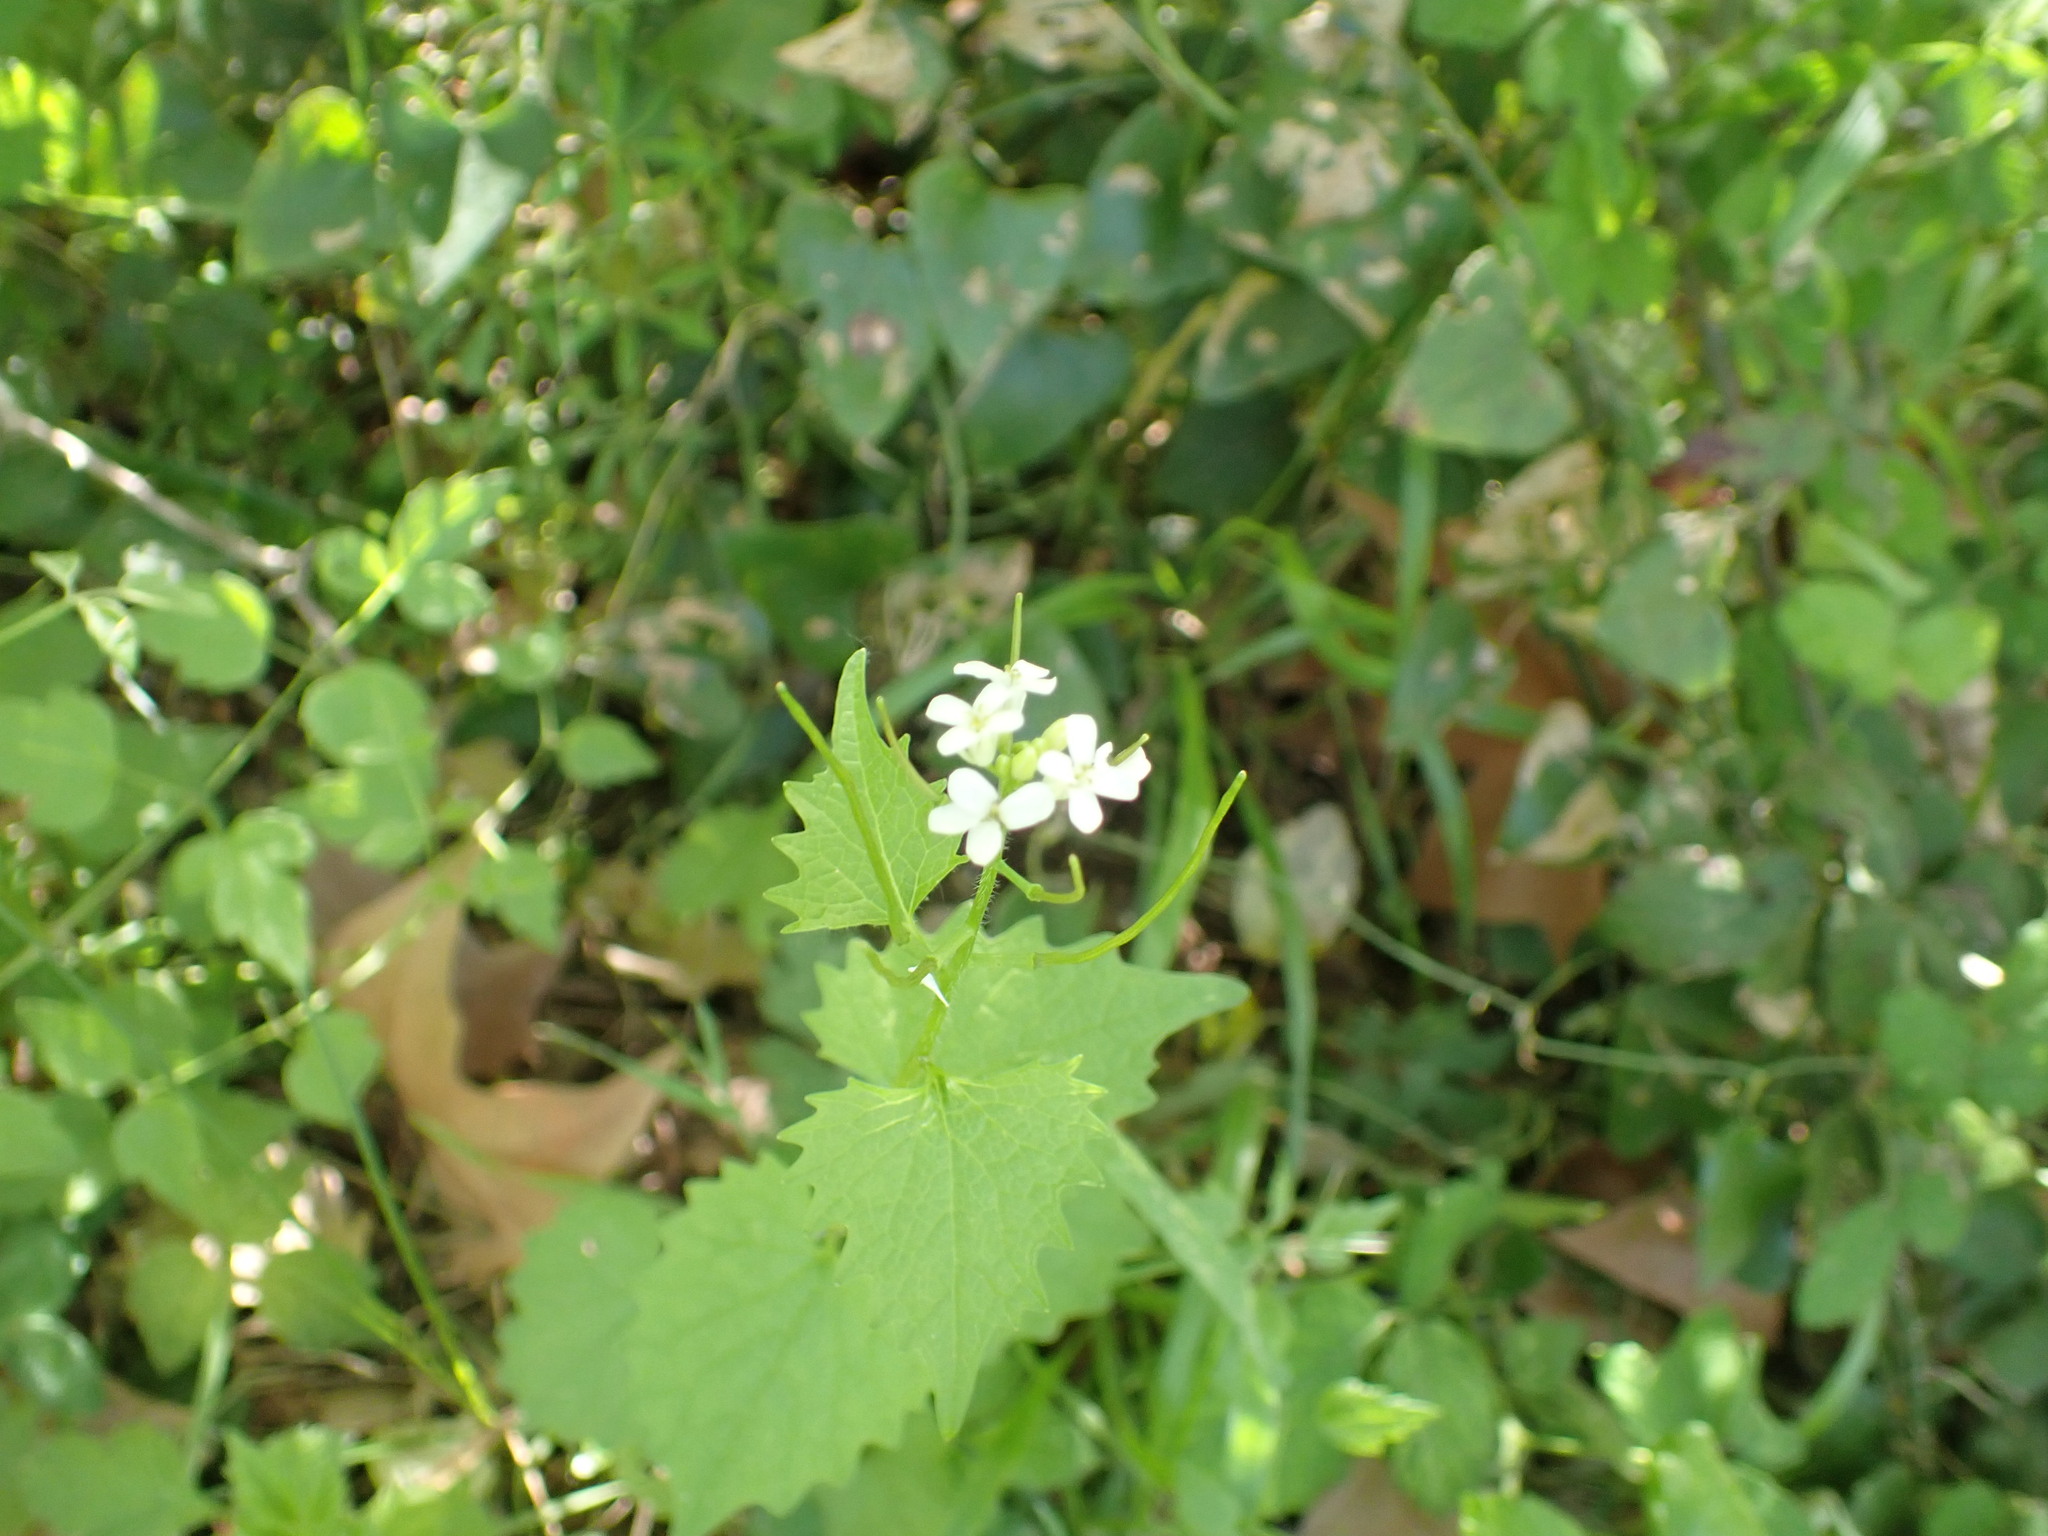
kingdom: Plantae
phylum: Tracheophyta
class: Magnoliopsida
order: Brassicales
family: Brassicaceae
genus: Alliaria
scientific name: Alliaria petiolata
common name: Garlic mustard
